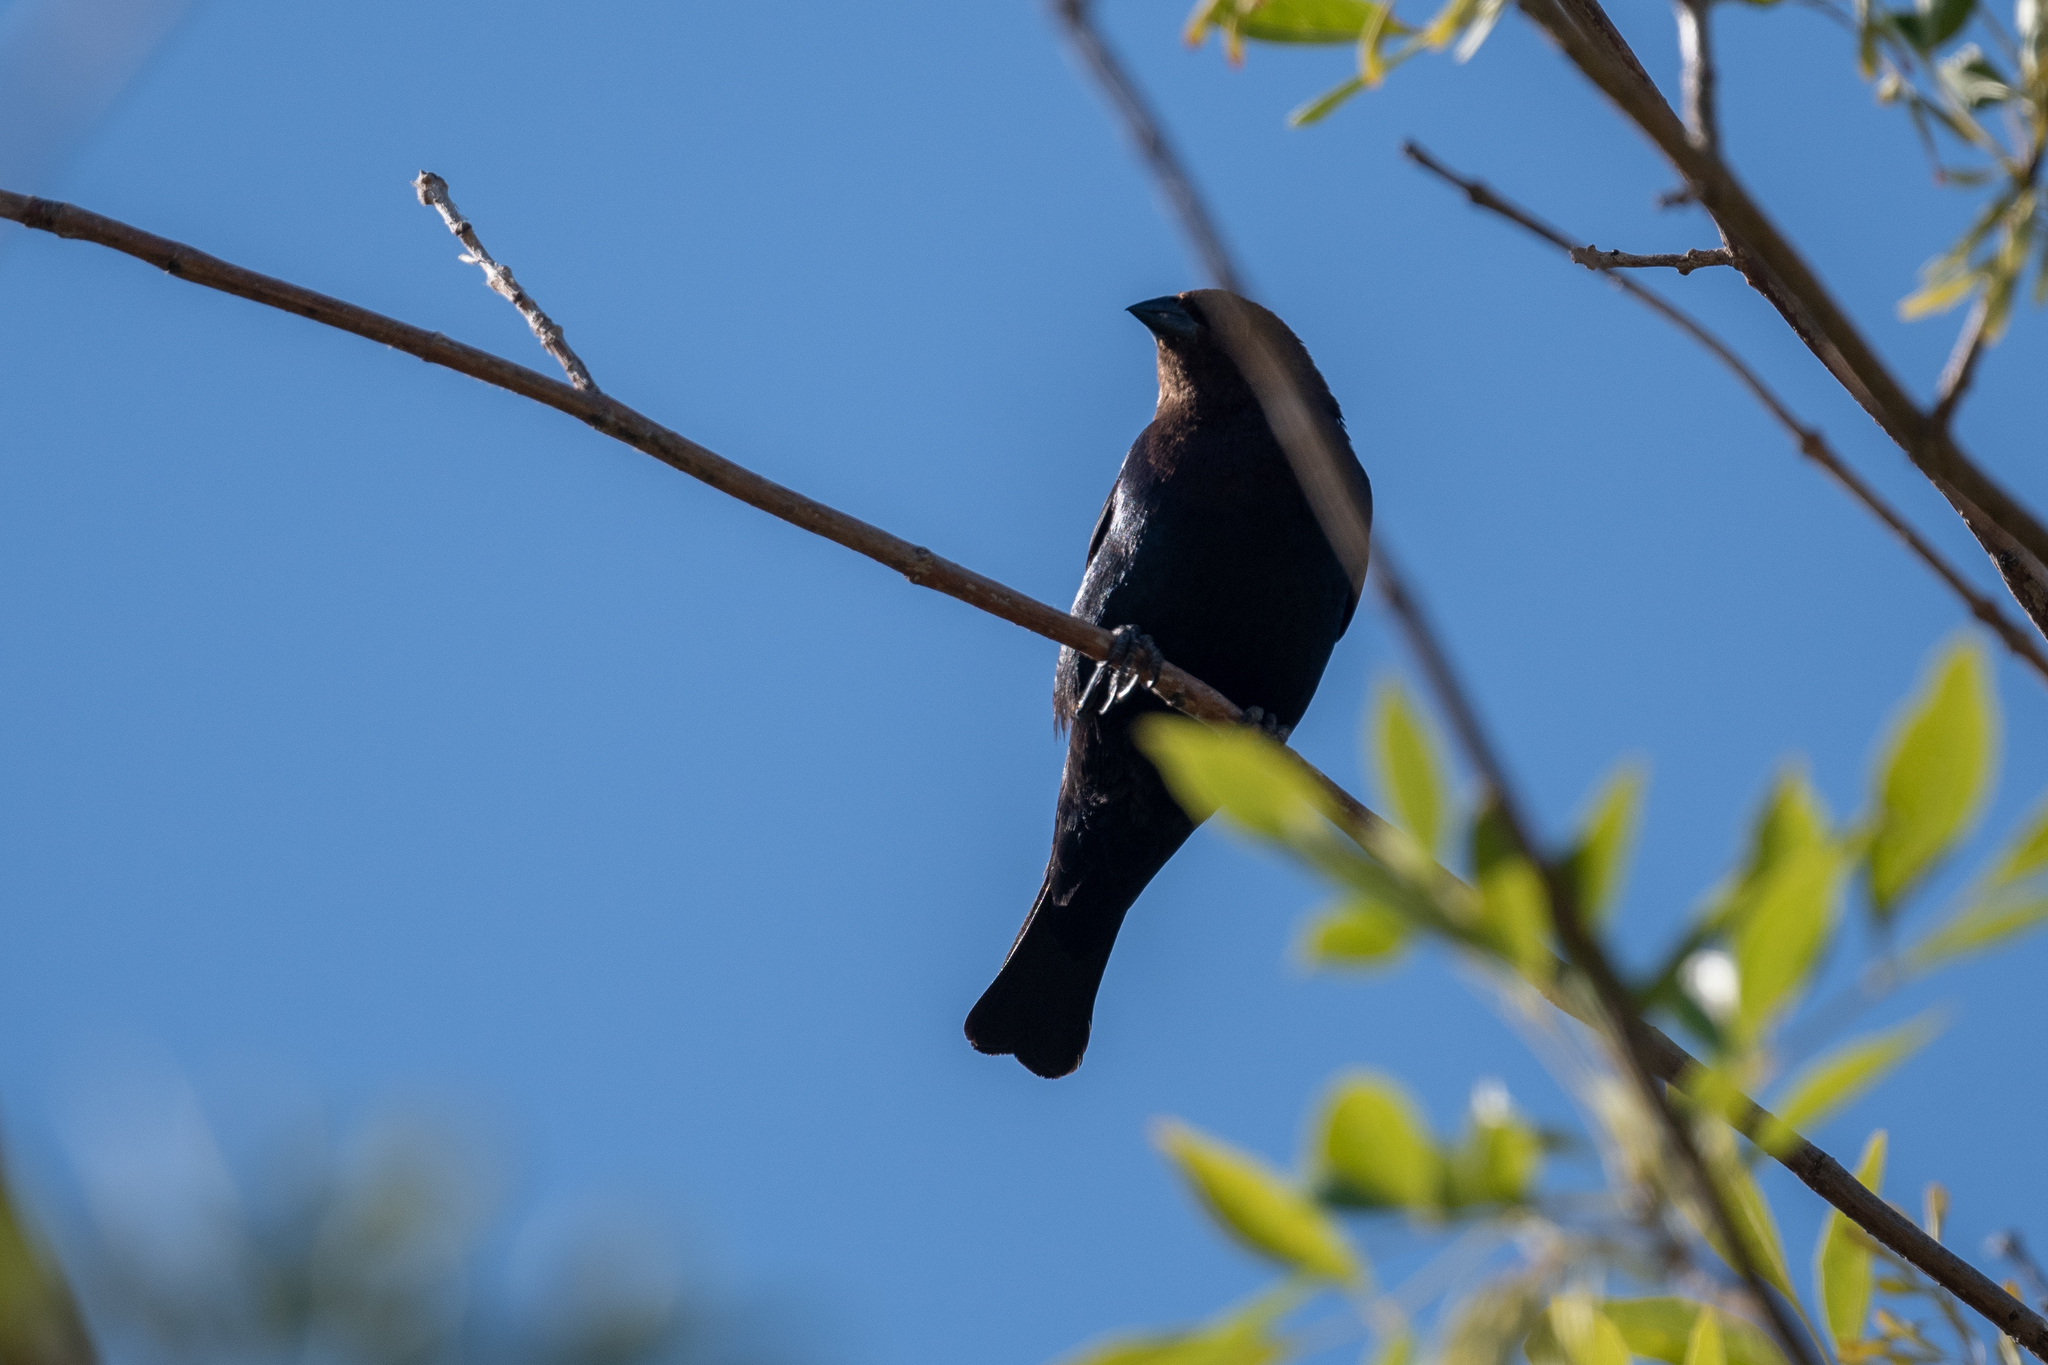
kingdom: Animalia
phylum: Chordata
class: Aves
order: Passeriformes
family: Icteridae
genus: Molothrus
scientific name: Molothrus ater
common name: Brown-headed cowbird
